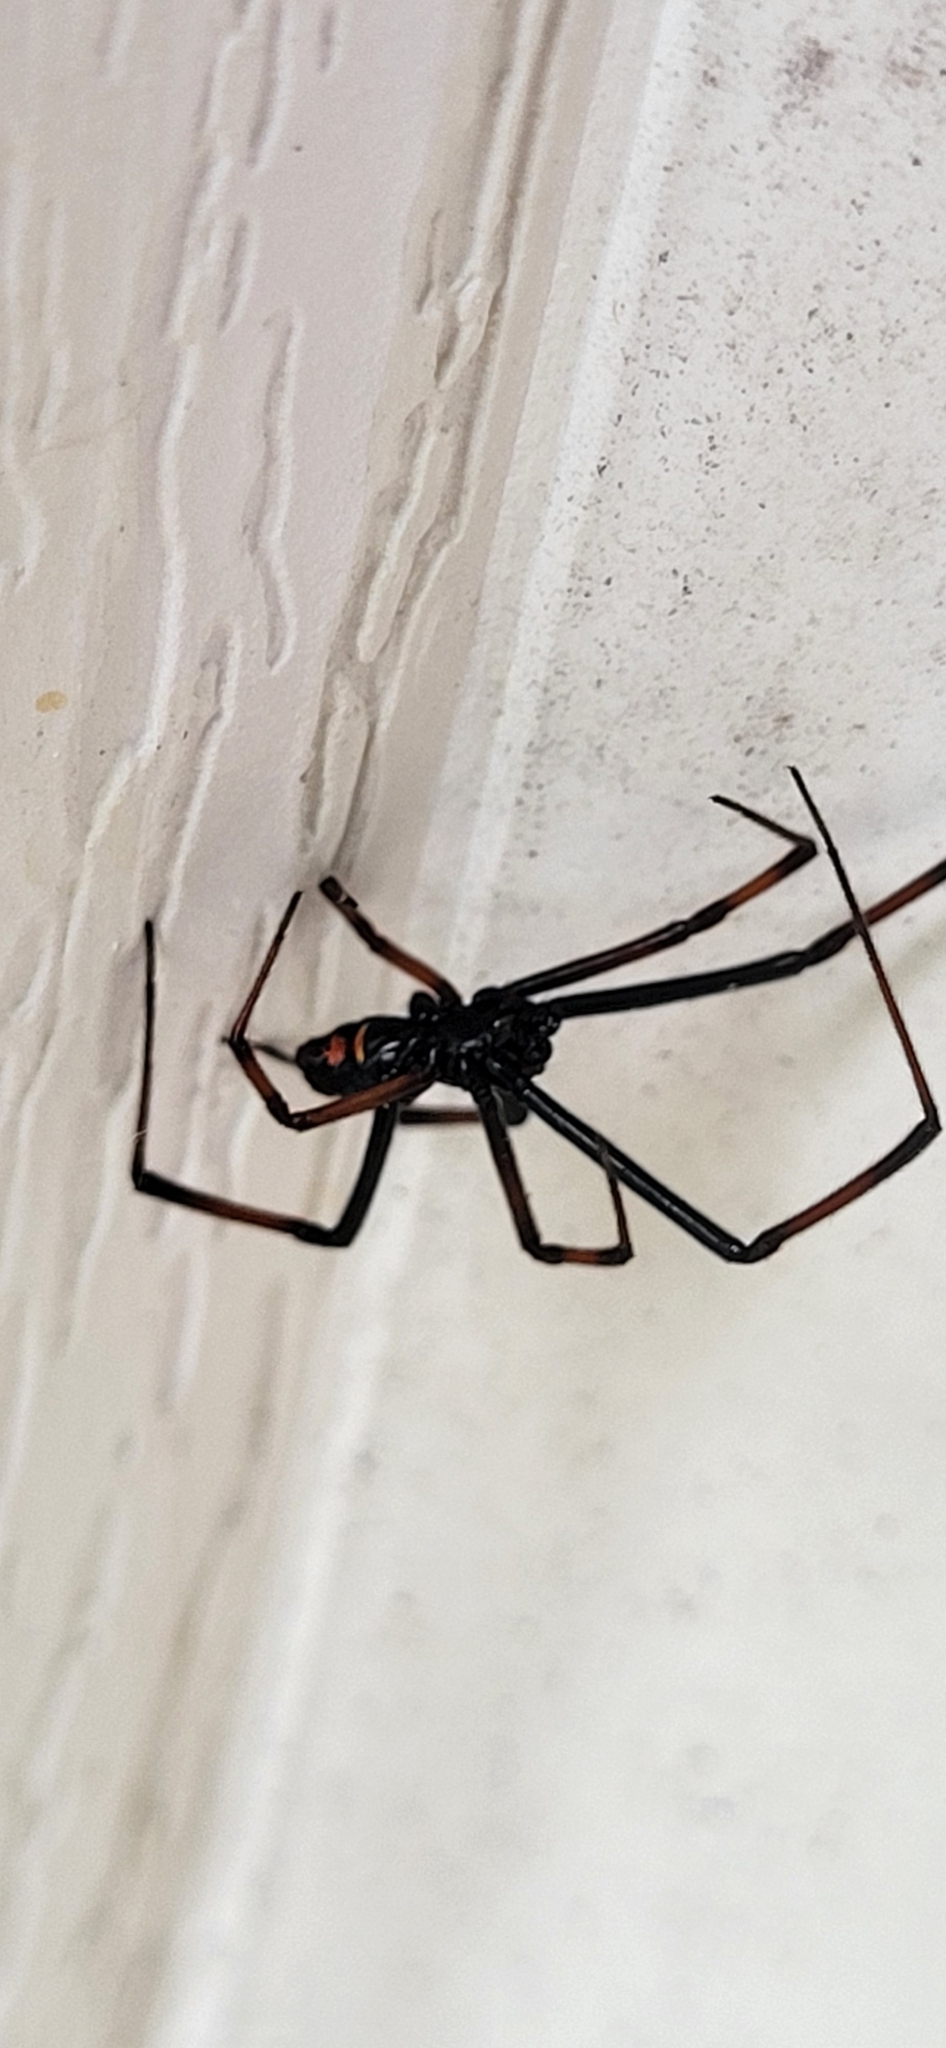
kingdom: Animalia
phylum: Arthropoda
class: Arachnida
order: Araneae
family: Theridiidae
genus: Latrodectus
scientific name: Latrodectus variolus
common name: Northern black widow
